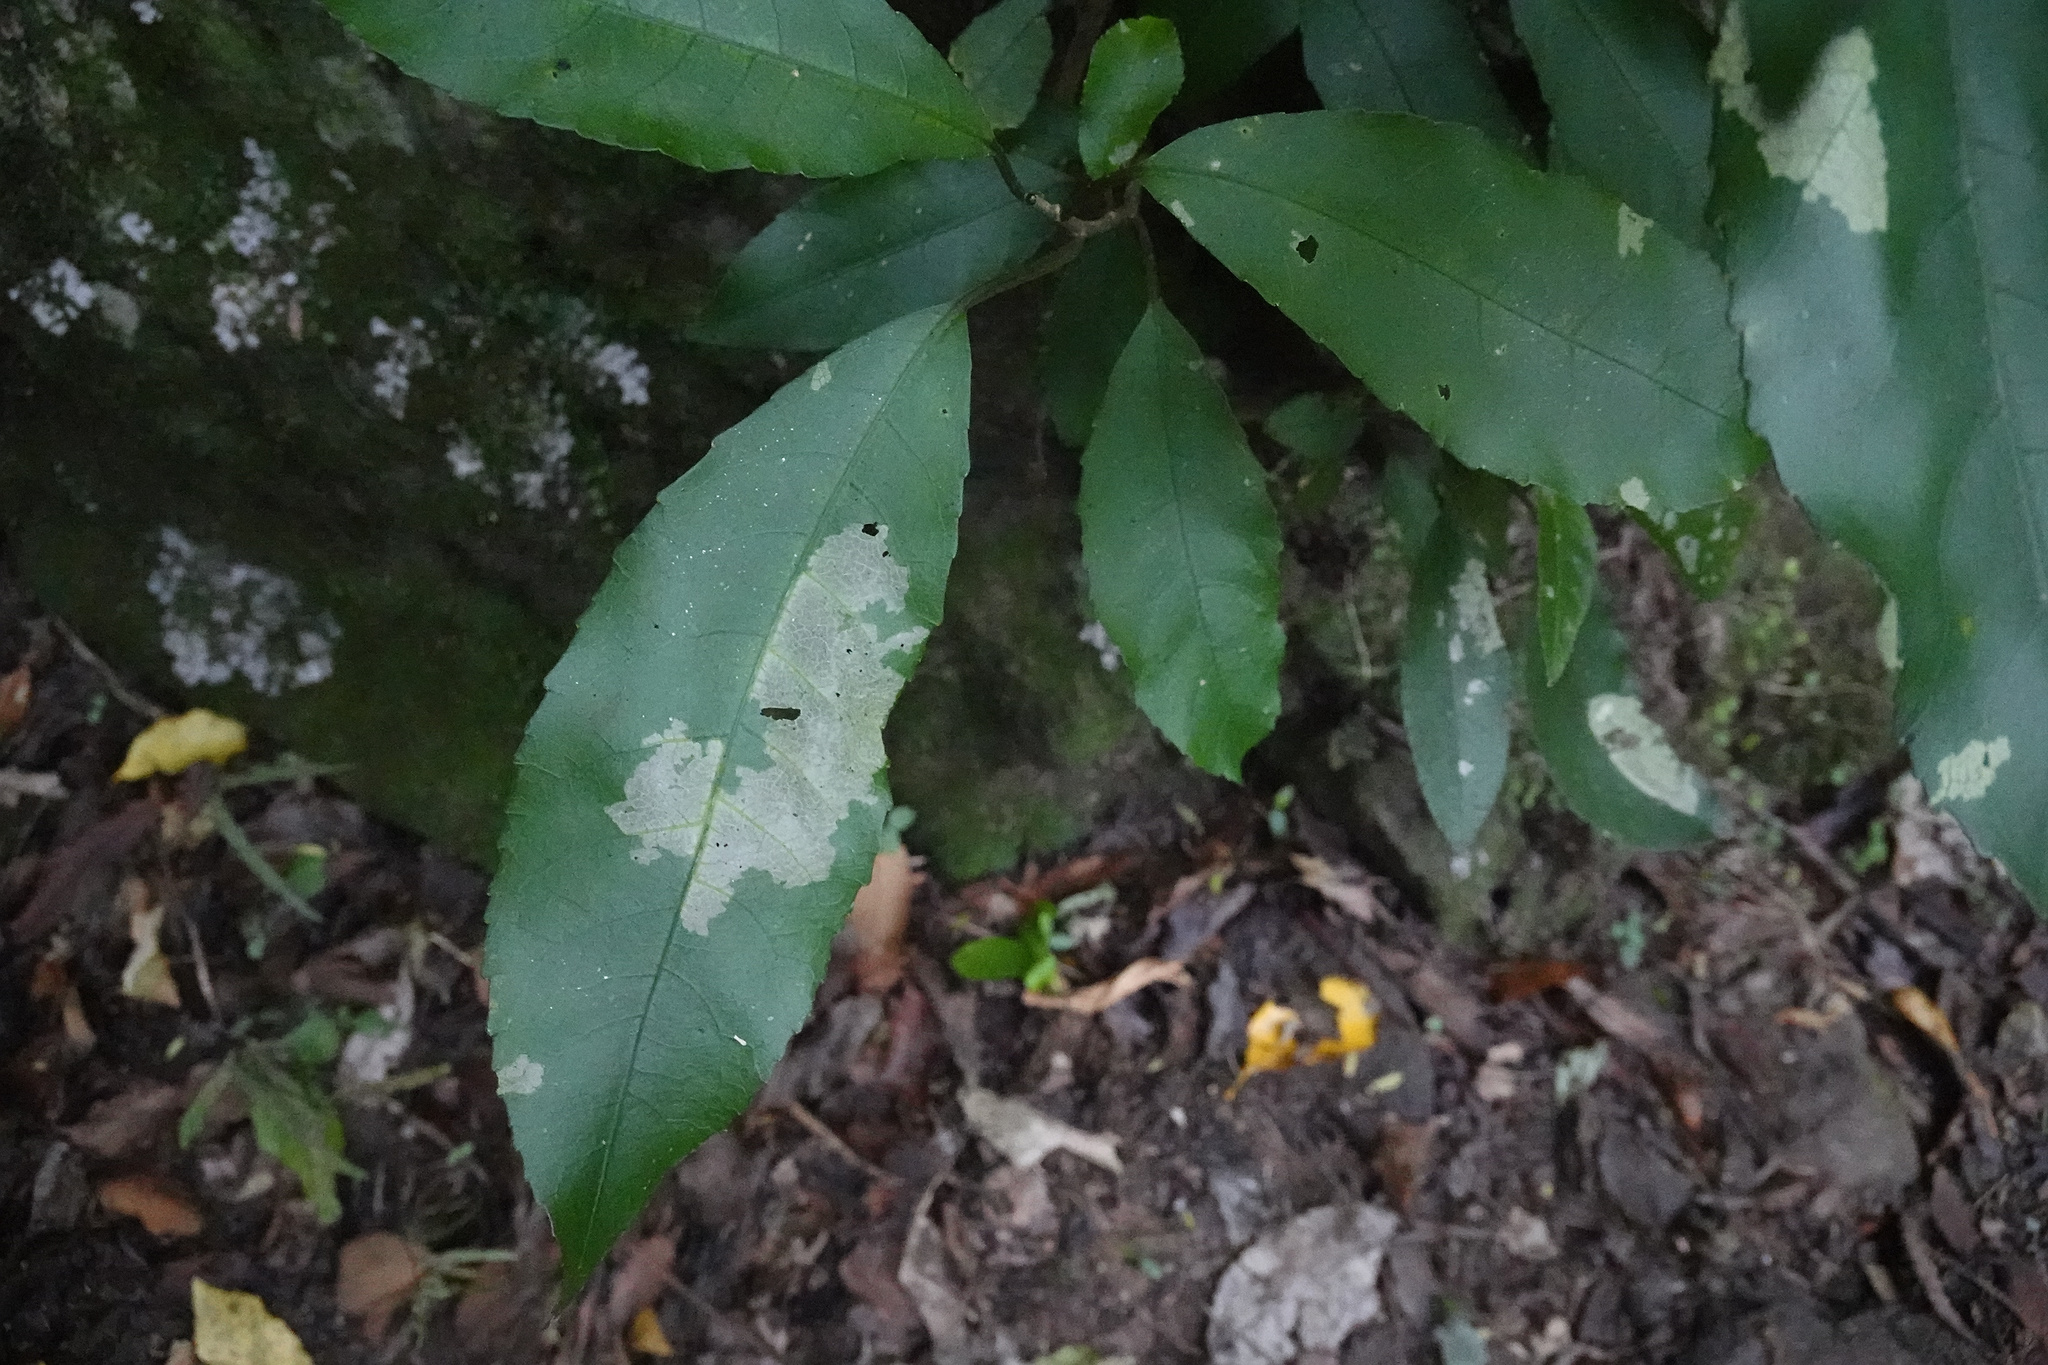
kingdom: Plantae
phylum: Tracheophyta
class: Magnoliopsida
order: Malpighiales
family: Violaceae
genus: Melicytus
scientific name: Melicytus ramiflorus
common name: Mahoe
